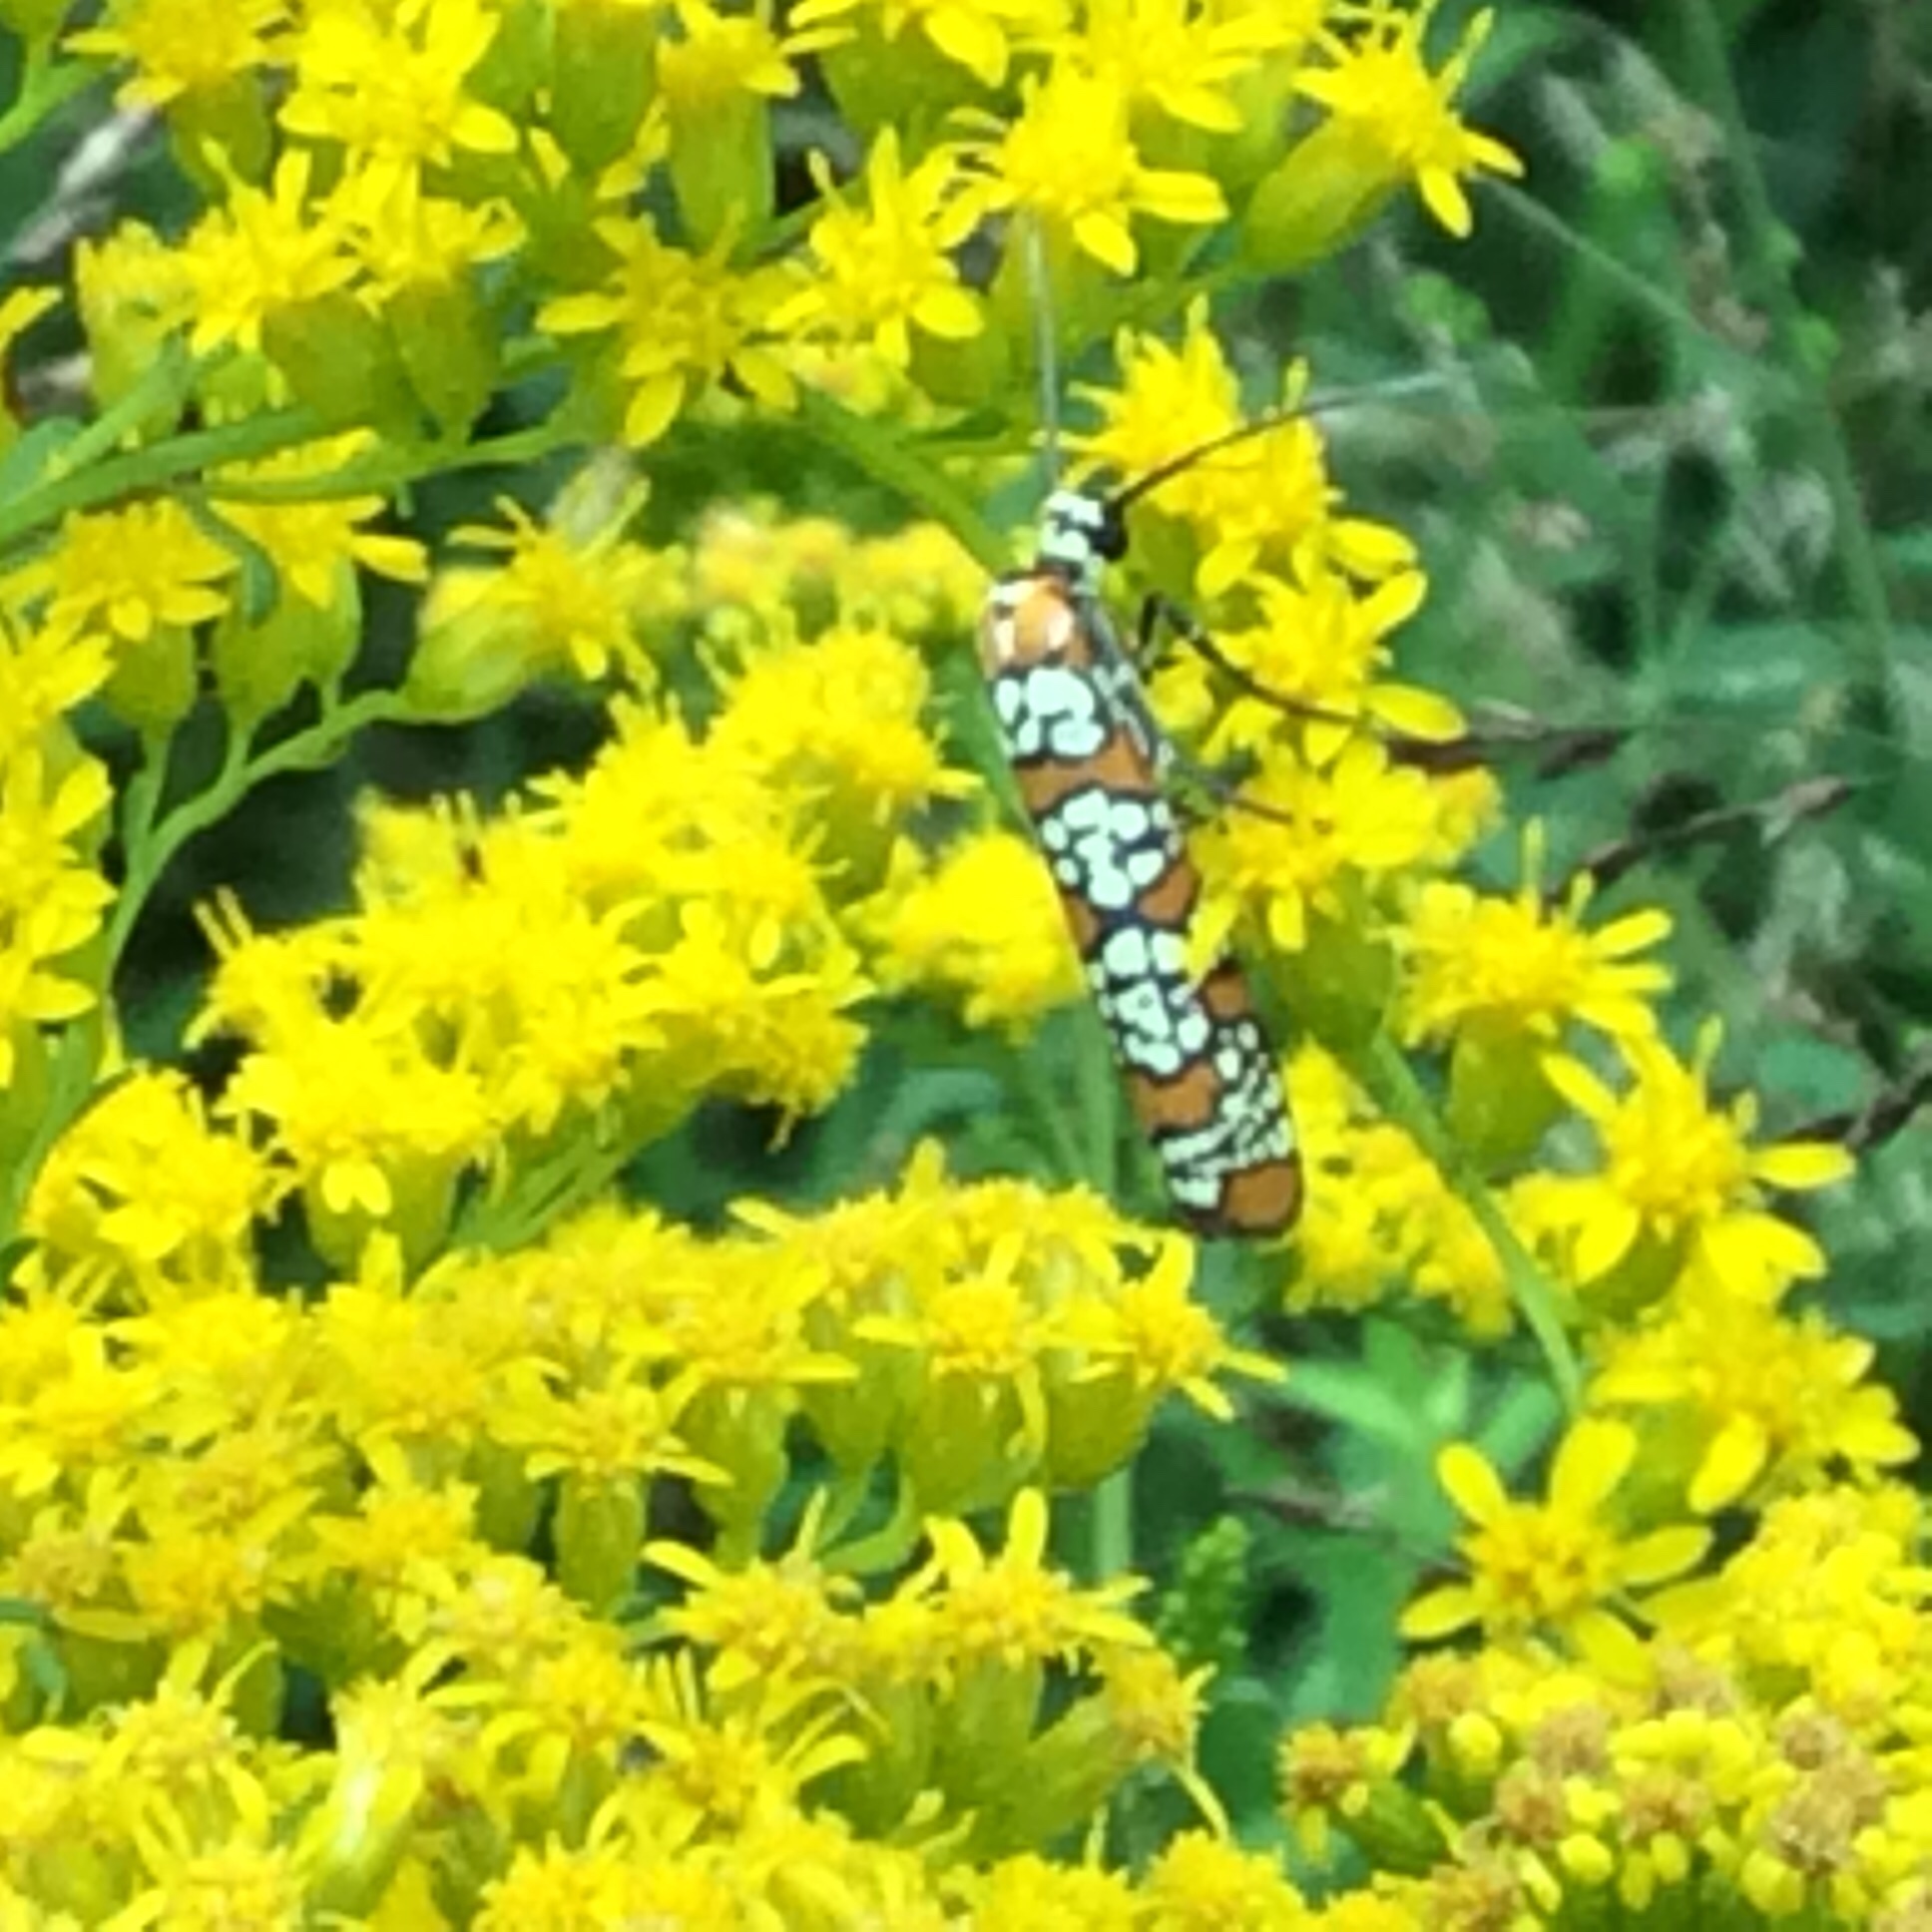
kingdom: Animalia
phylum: Arthropoda
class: Insecta
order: Lepidoptera
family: Attevidae
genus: Atteva
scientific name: Atteva punctella
